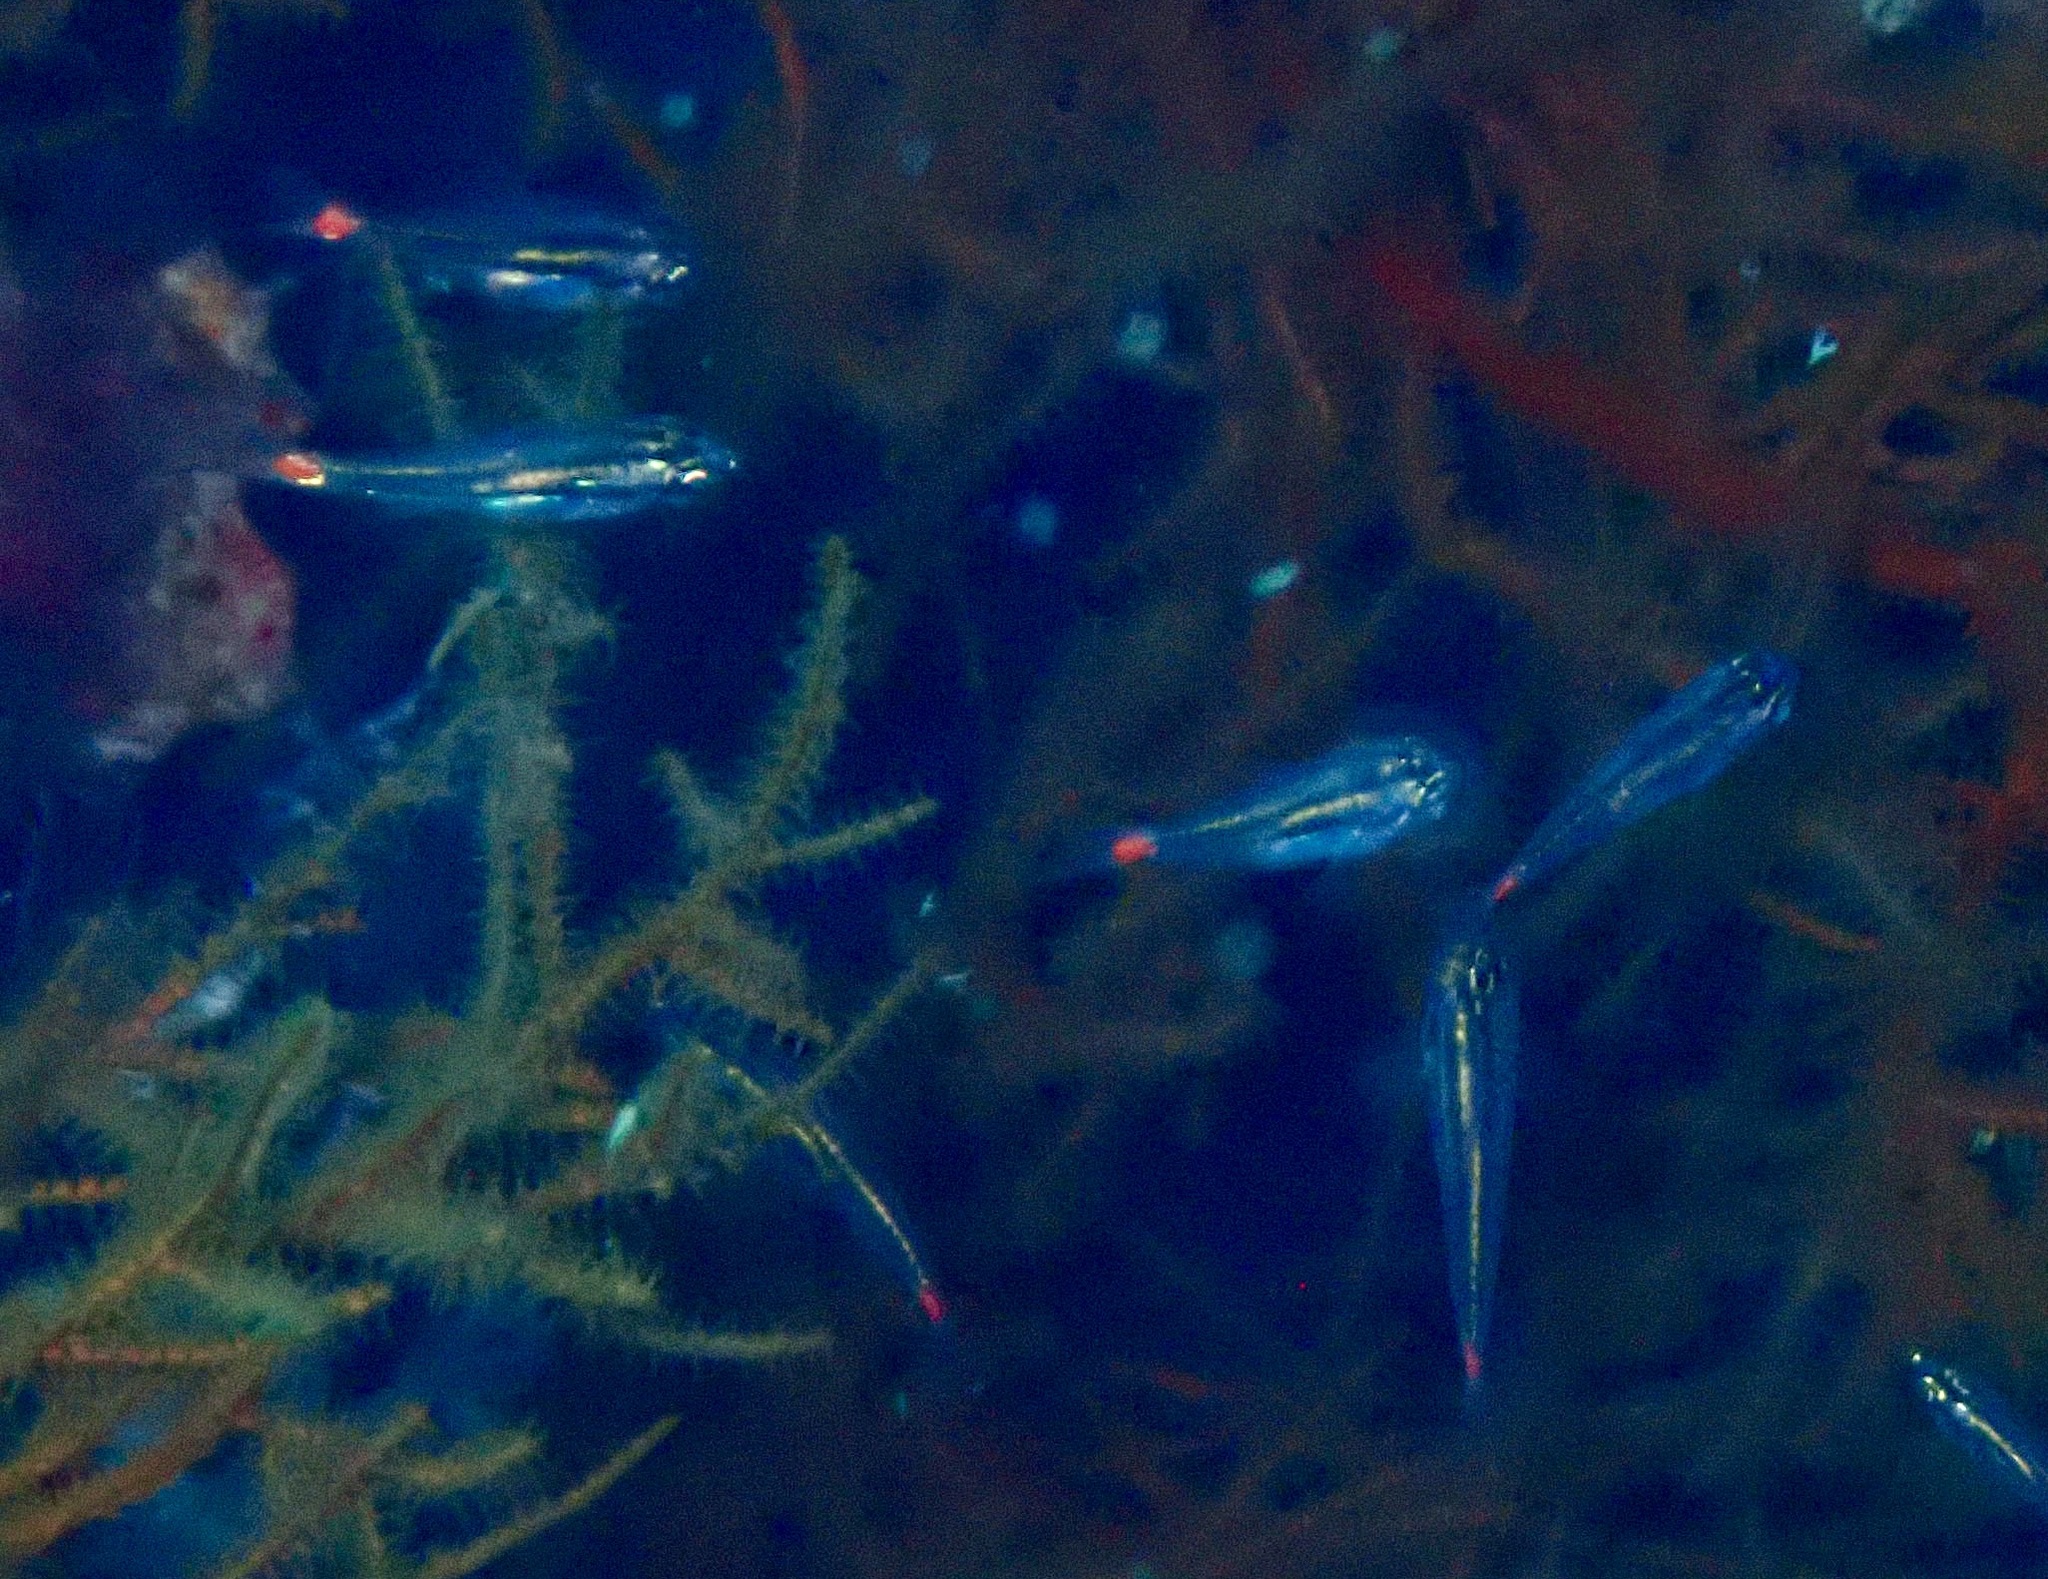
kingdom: Animalia
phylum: Chordata
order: Perciformes
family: Apogonidae
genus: Ostorhinchus
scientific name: Ostorhinchus parvulus
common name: Red-spot cardinalfish
